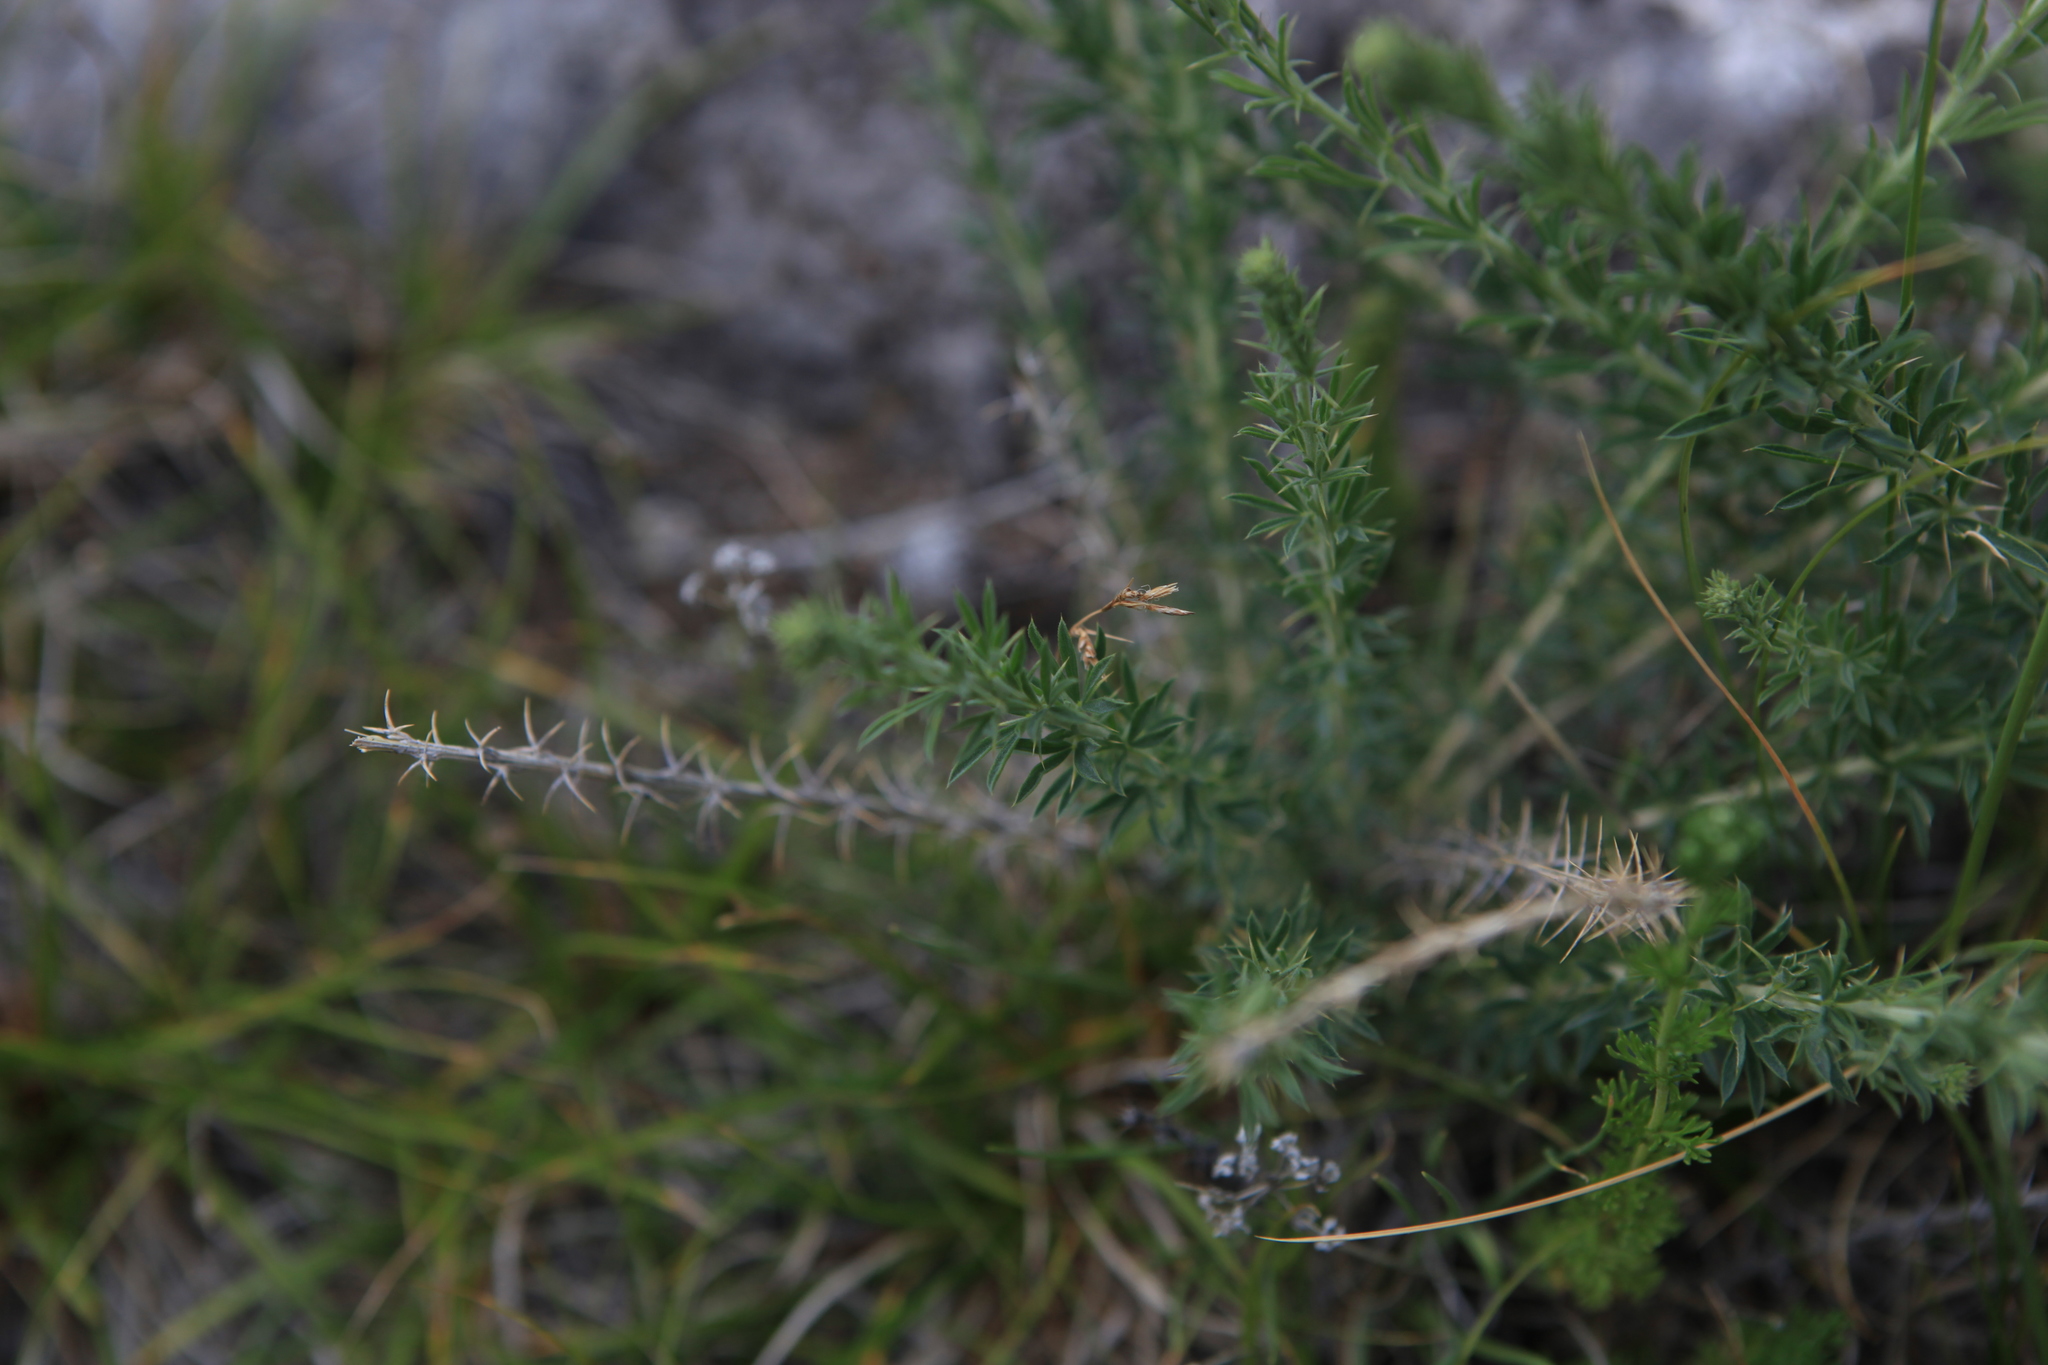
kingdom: Plantae
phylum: Tracheophyta
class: Magnoliopsida
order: Fabales
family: Fabaceae
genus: Caragana
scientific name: Caragana pygmaea
